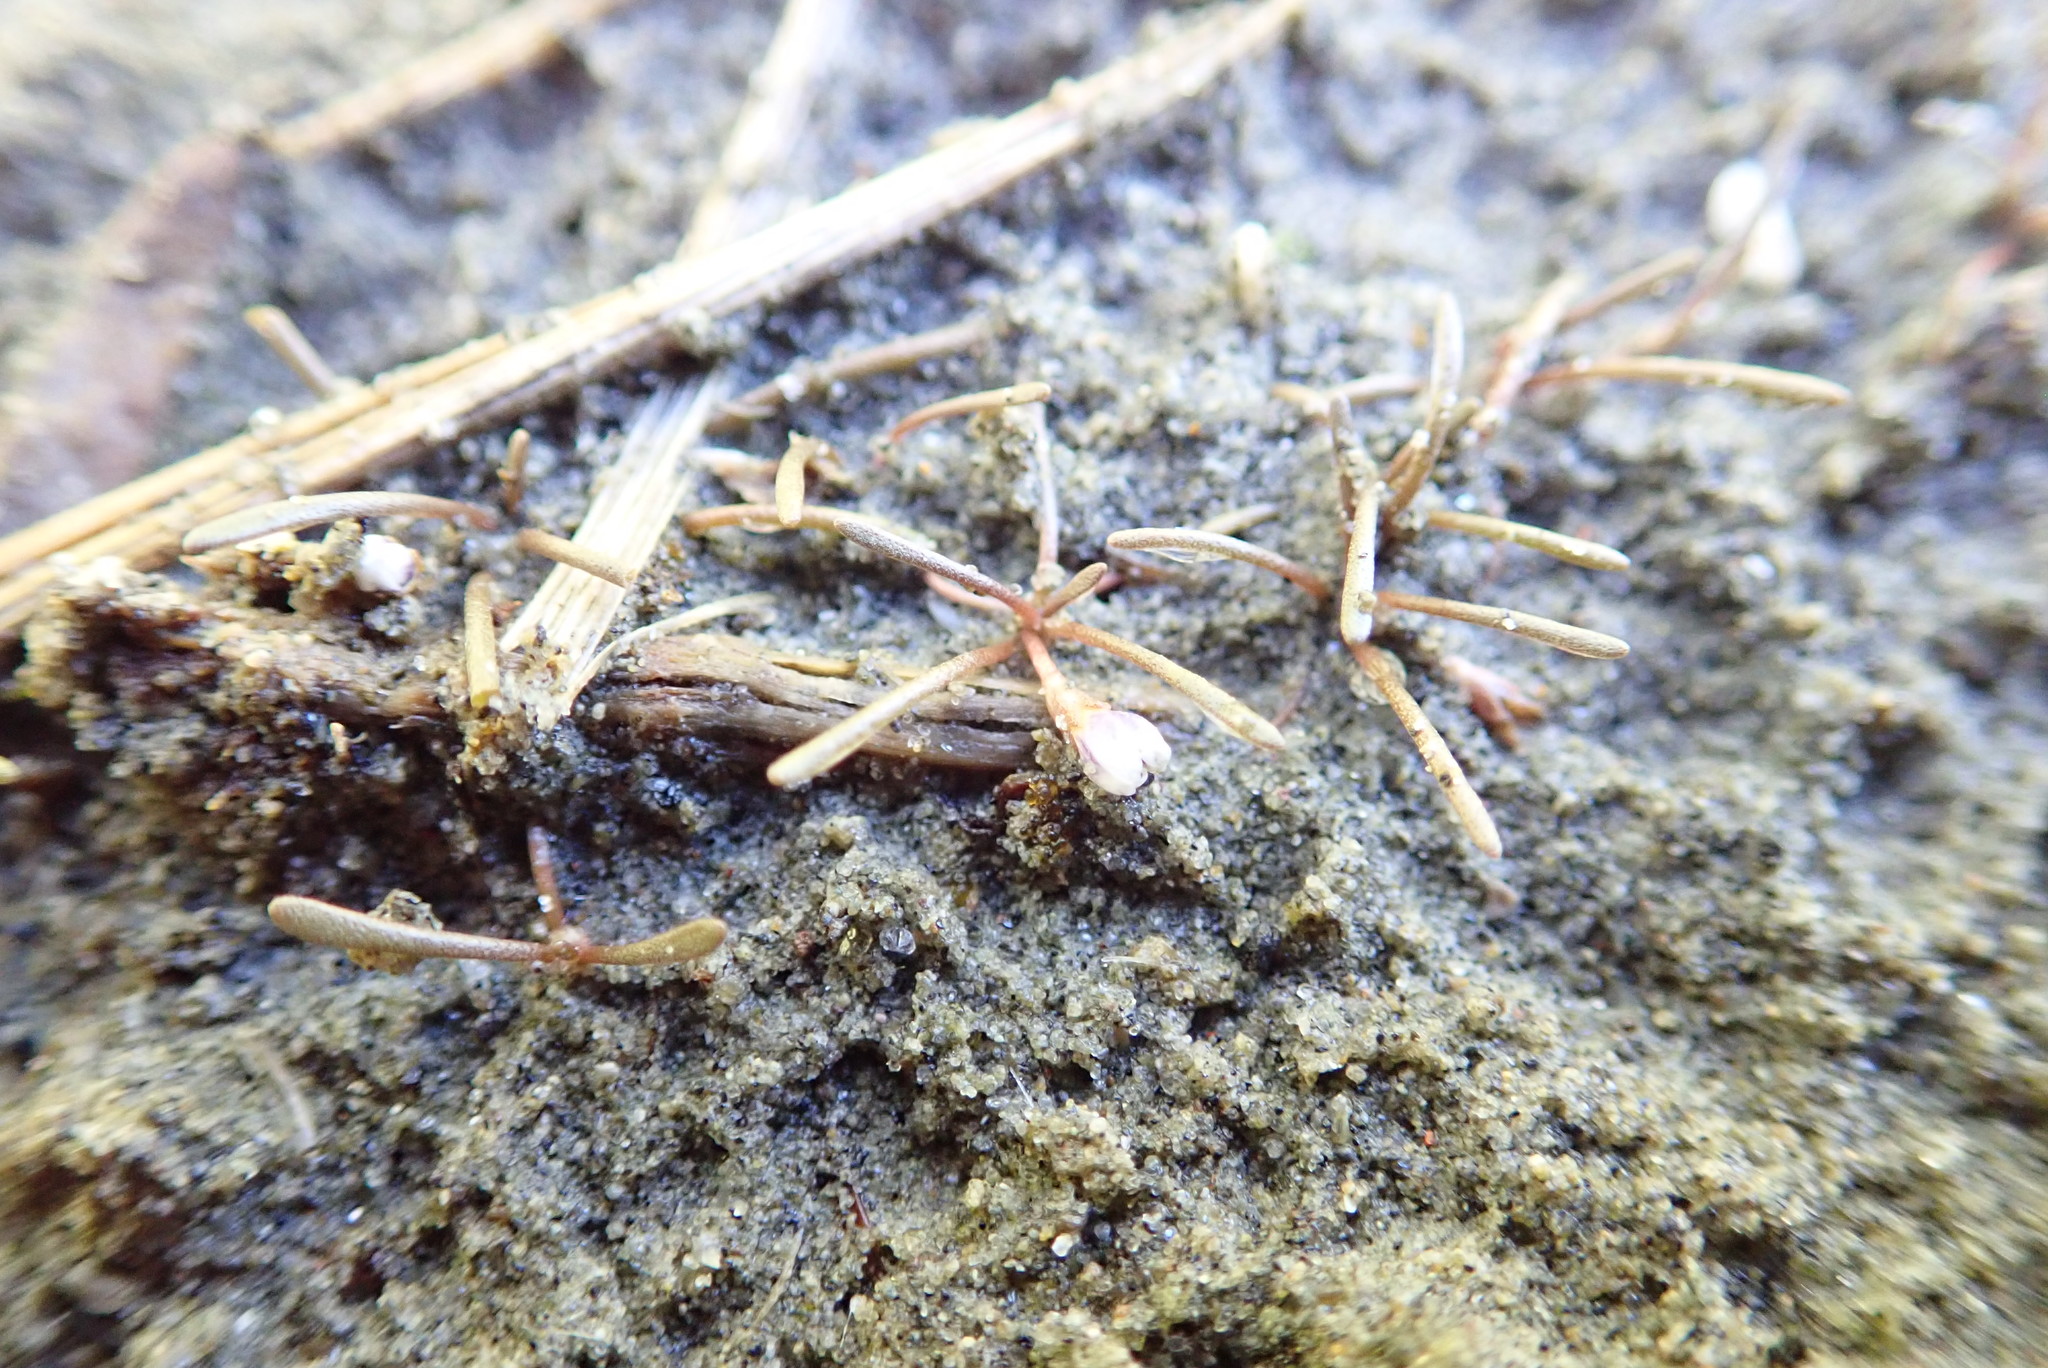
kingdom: Plantae
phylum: Tracheophyta
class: Magnoliopsida
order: Lamiales
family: Scrophulariaceae
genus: Limosella
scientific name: Limosella australis
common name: Welsh mudwort
